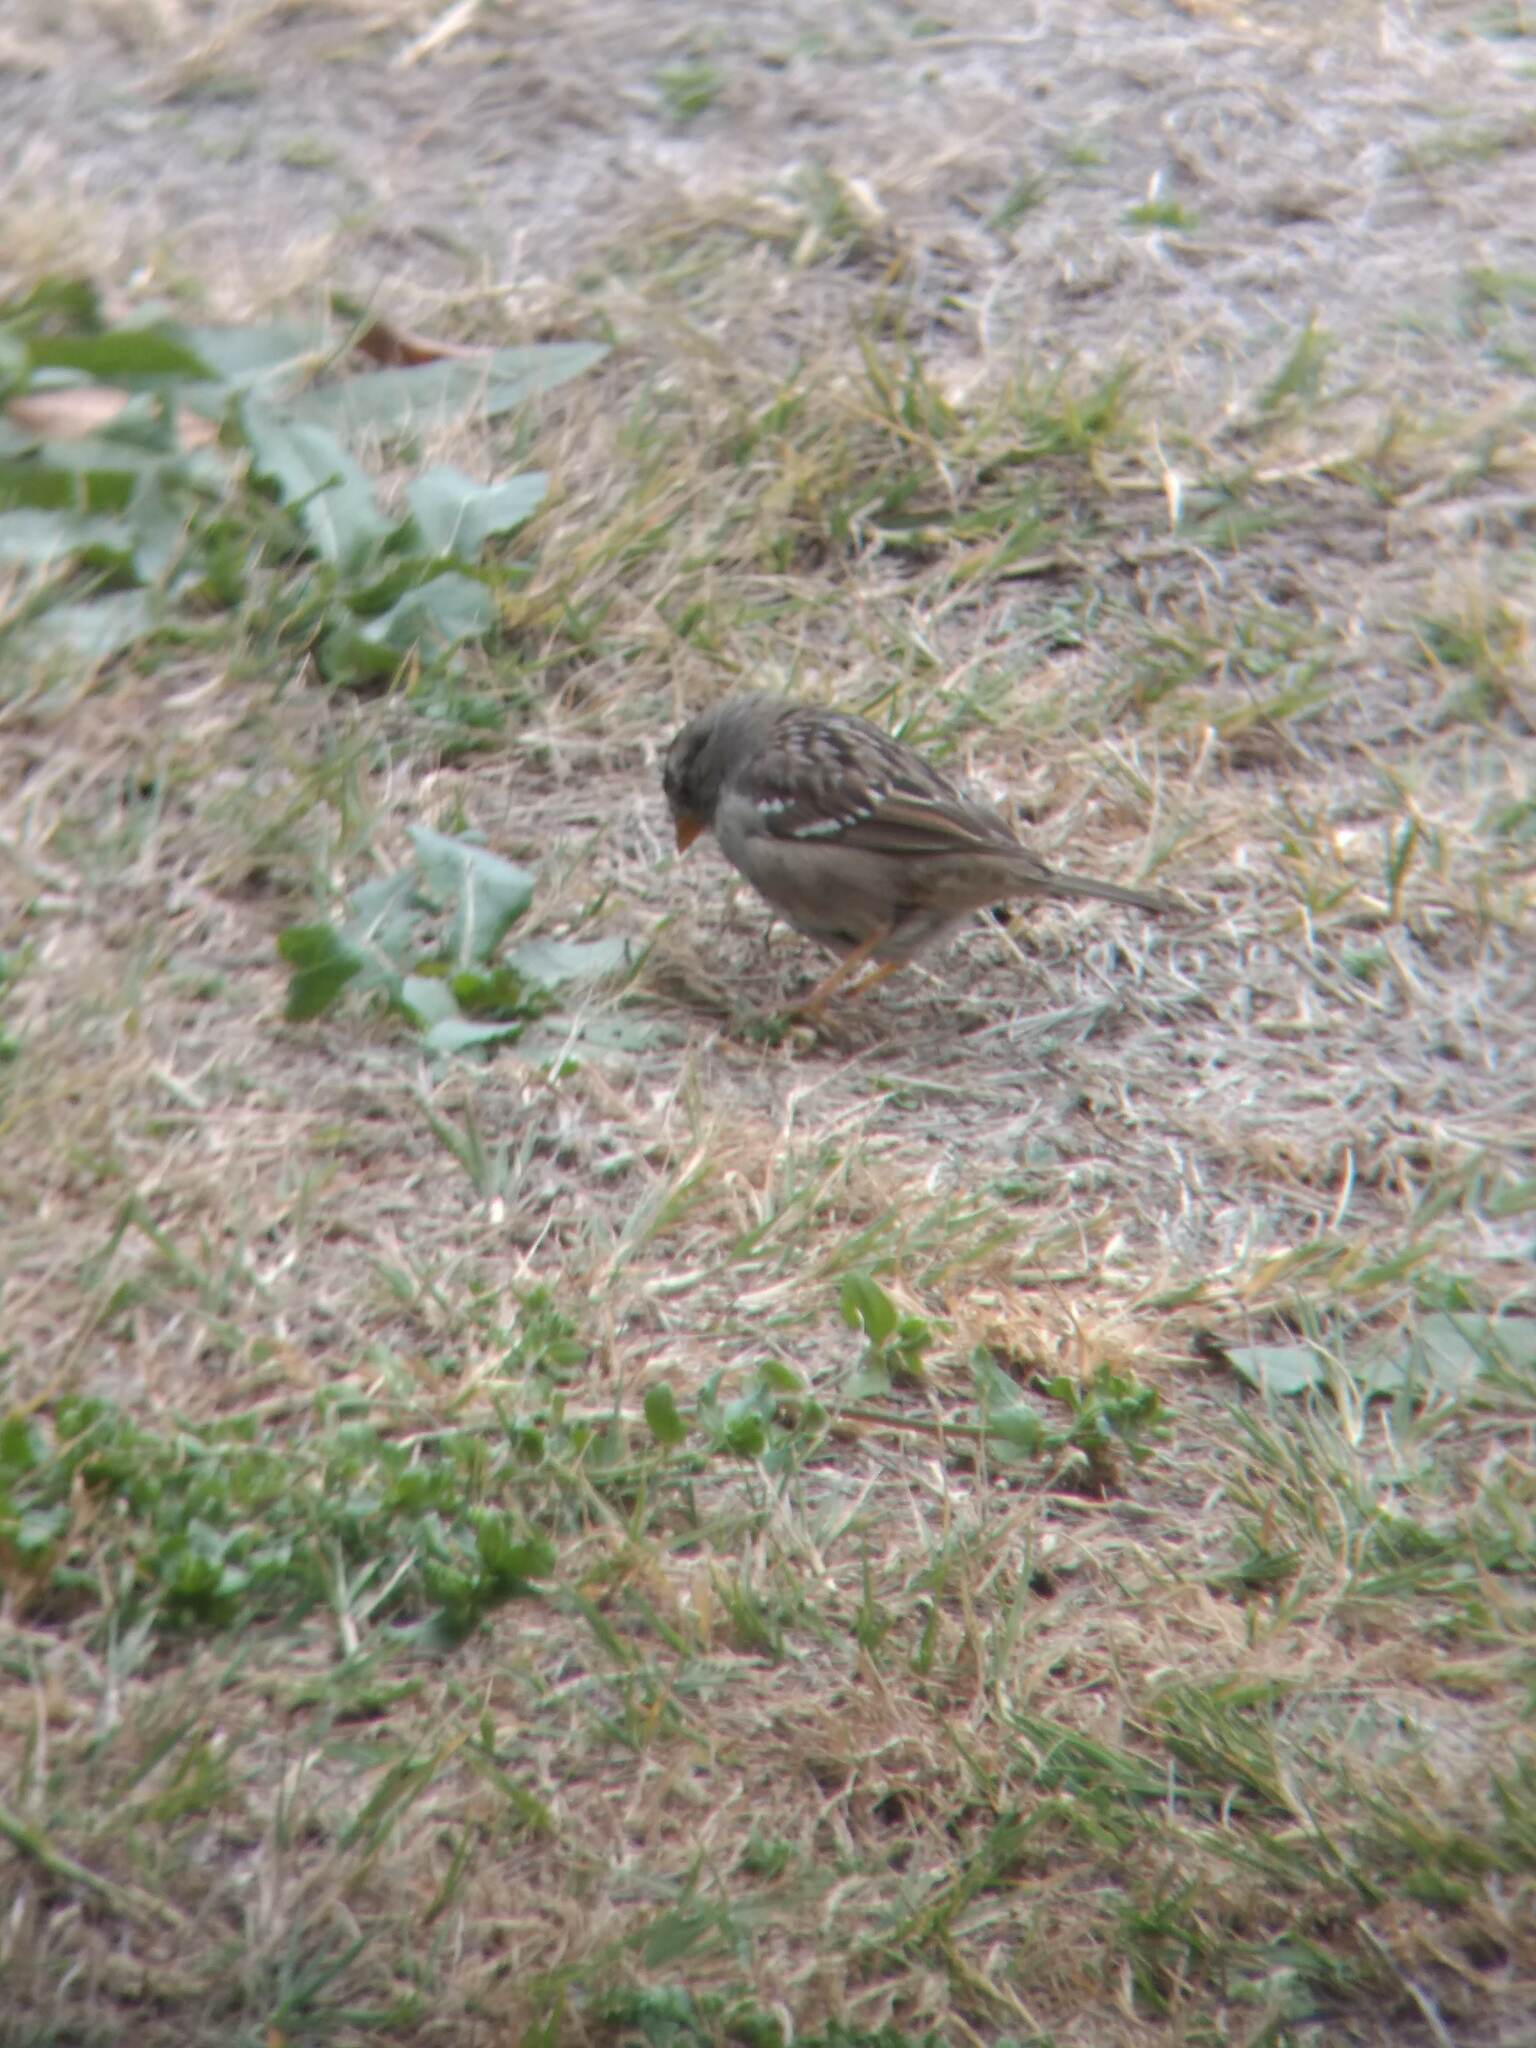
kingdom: Animalia
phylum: Chordata
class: Aves
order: Passeriformes
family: Passerellidae
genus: Zonotrichia
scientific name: Zonotrichia leucophrys
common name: White-crowned sparrow
